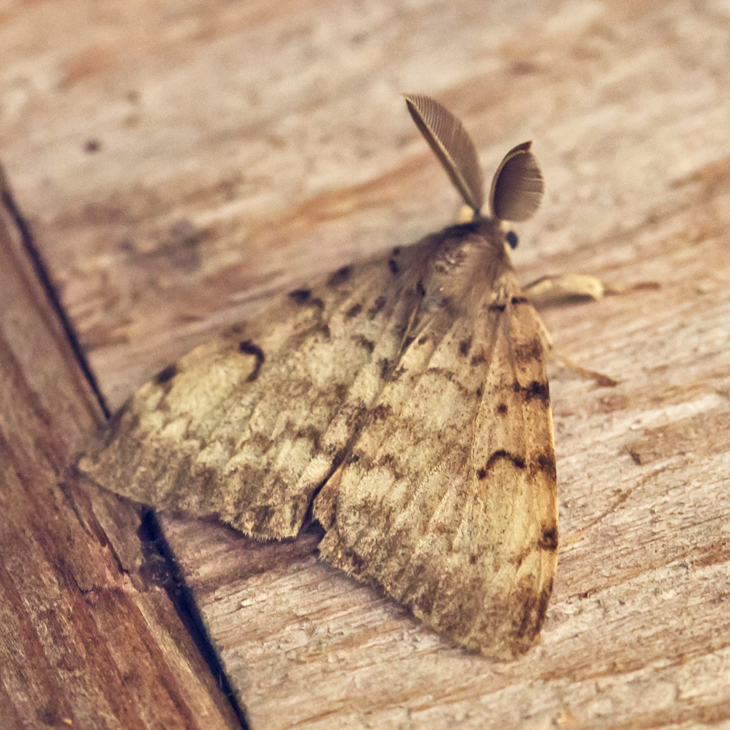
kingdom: Animalia
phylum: Arthropoda
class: Insecta
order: Lepidoptera
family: Erebidae
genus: Lymantria
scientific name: Lymantria dispar
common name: Gypsy moth
